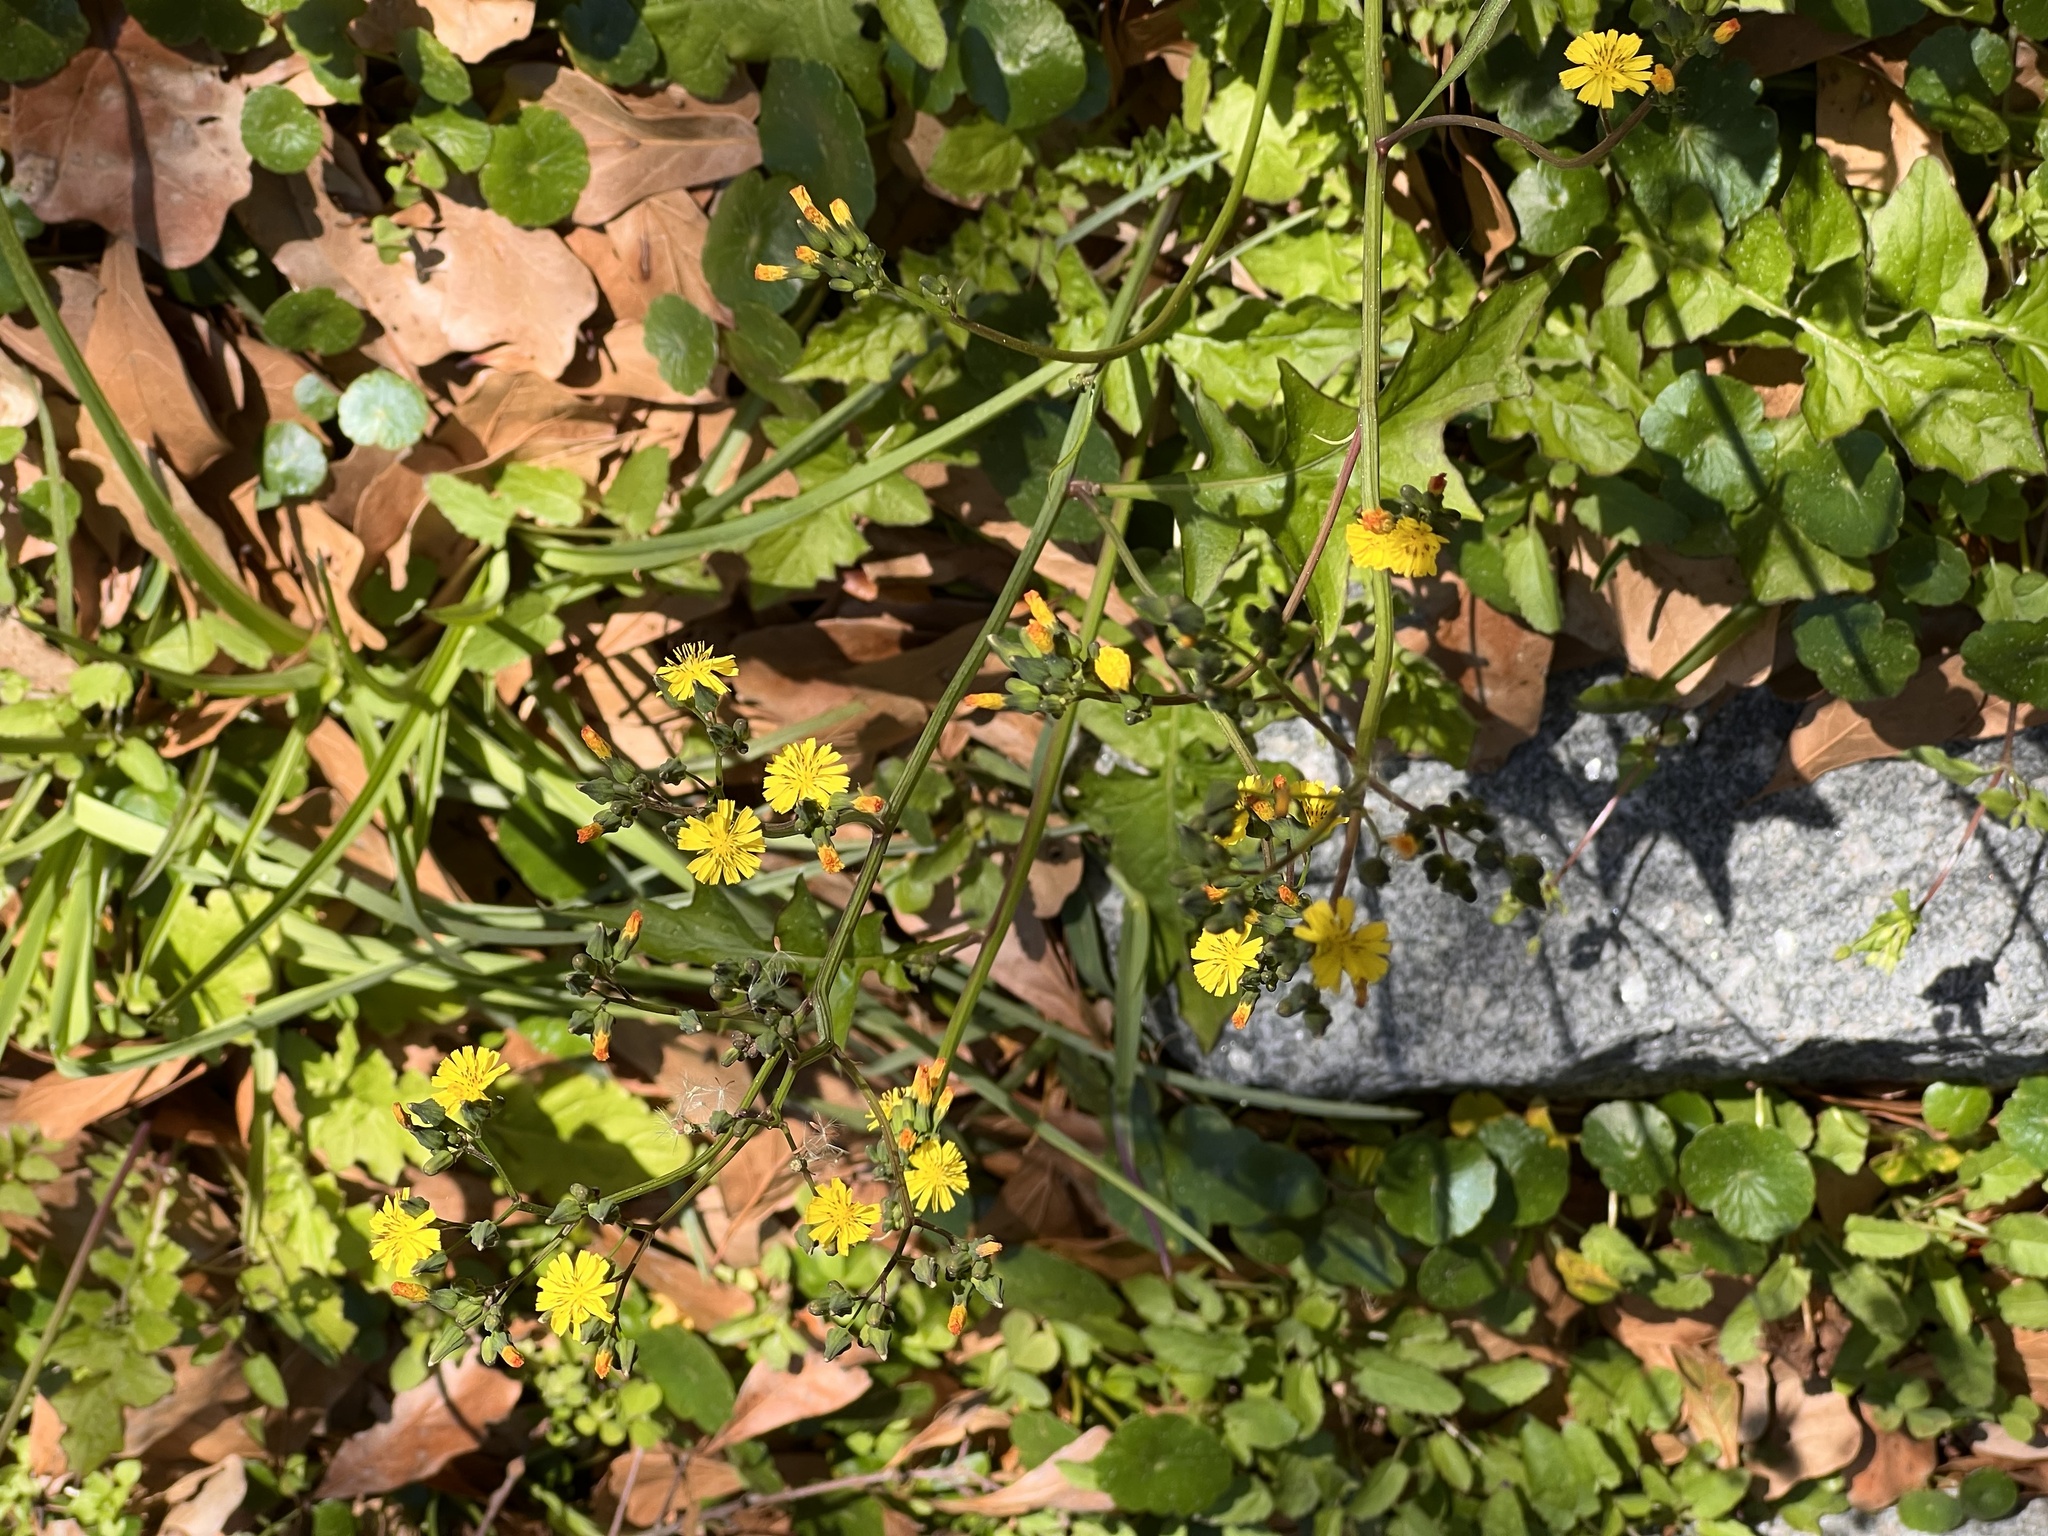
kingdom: Plantae
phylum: Tracheophyta
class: Magnoliopsida
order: Asterales
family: Asteraceae
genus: Youngia
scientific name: Youngia japonica
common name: Oriental false hawksbeard
